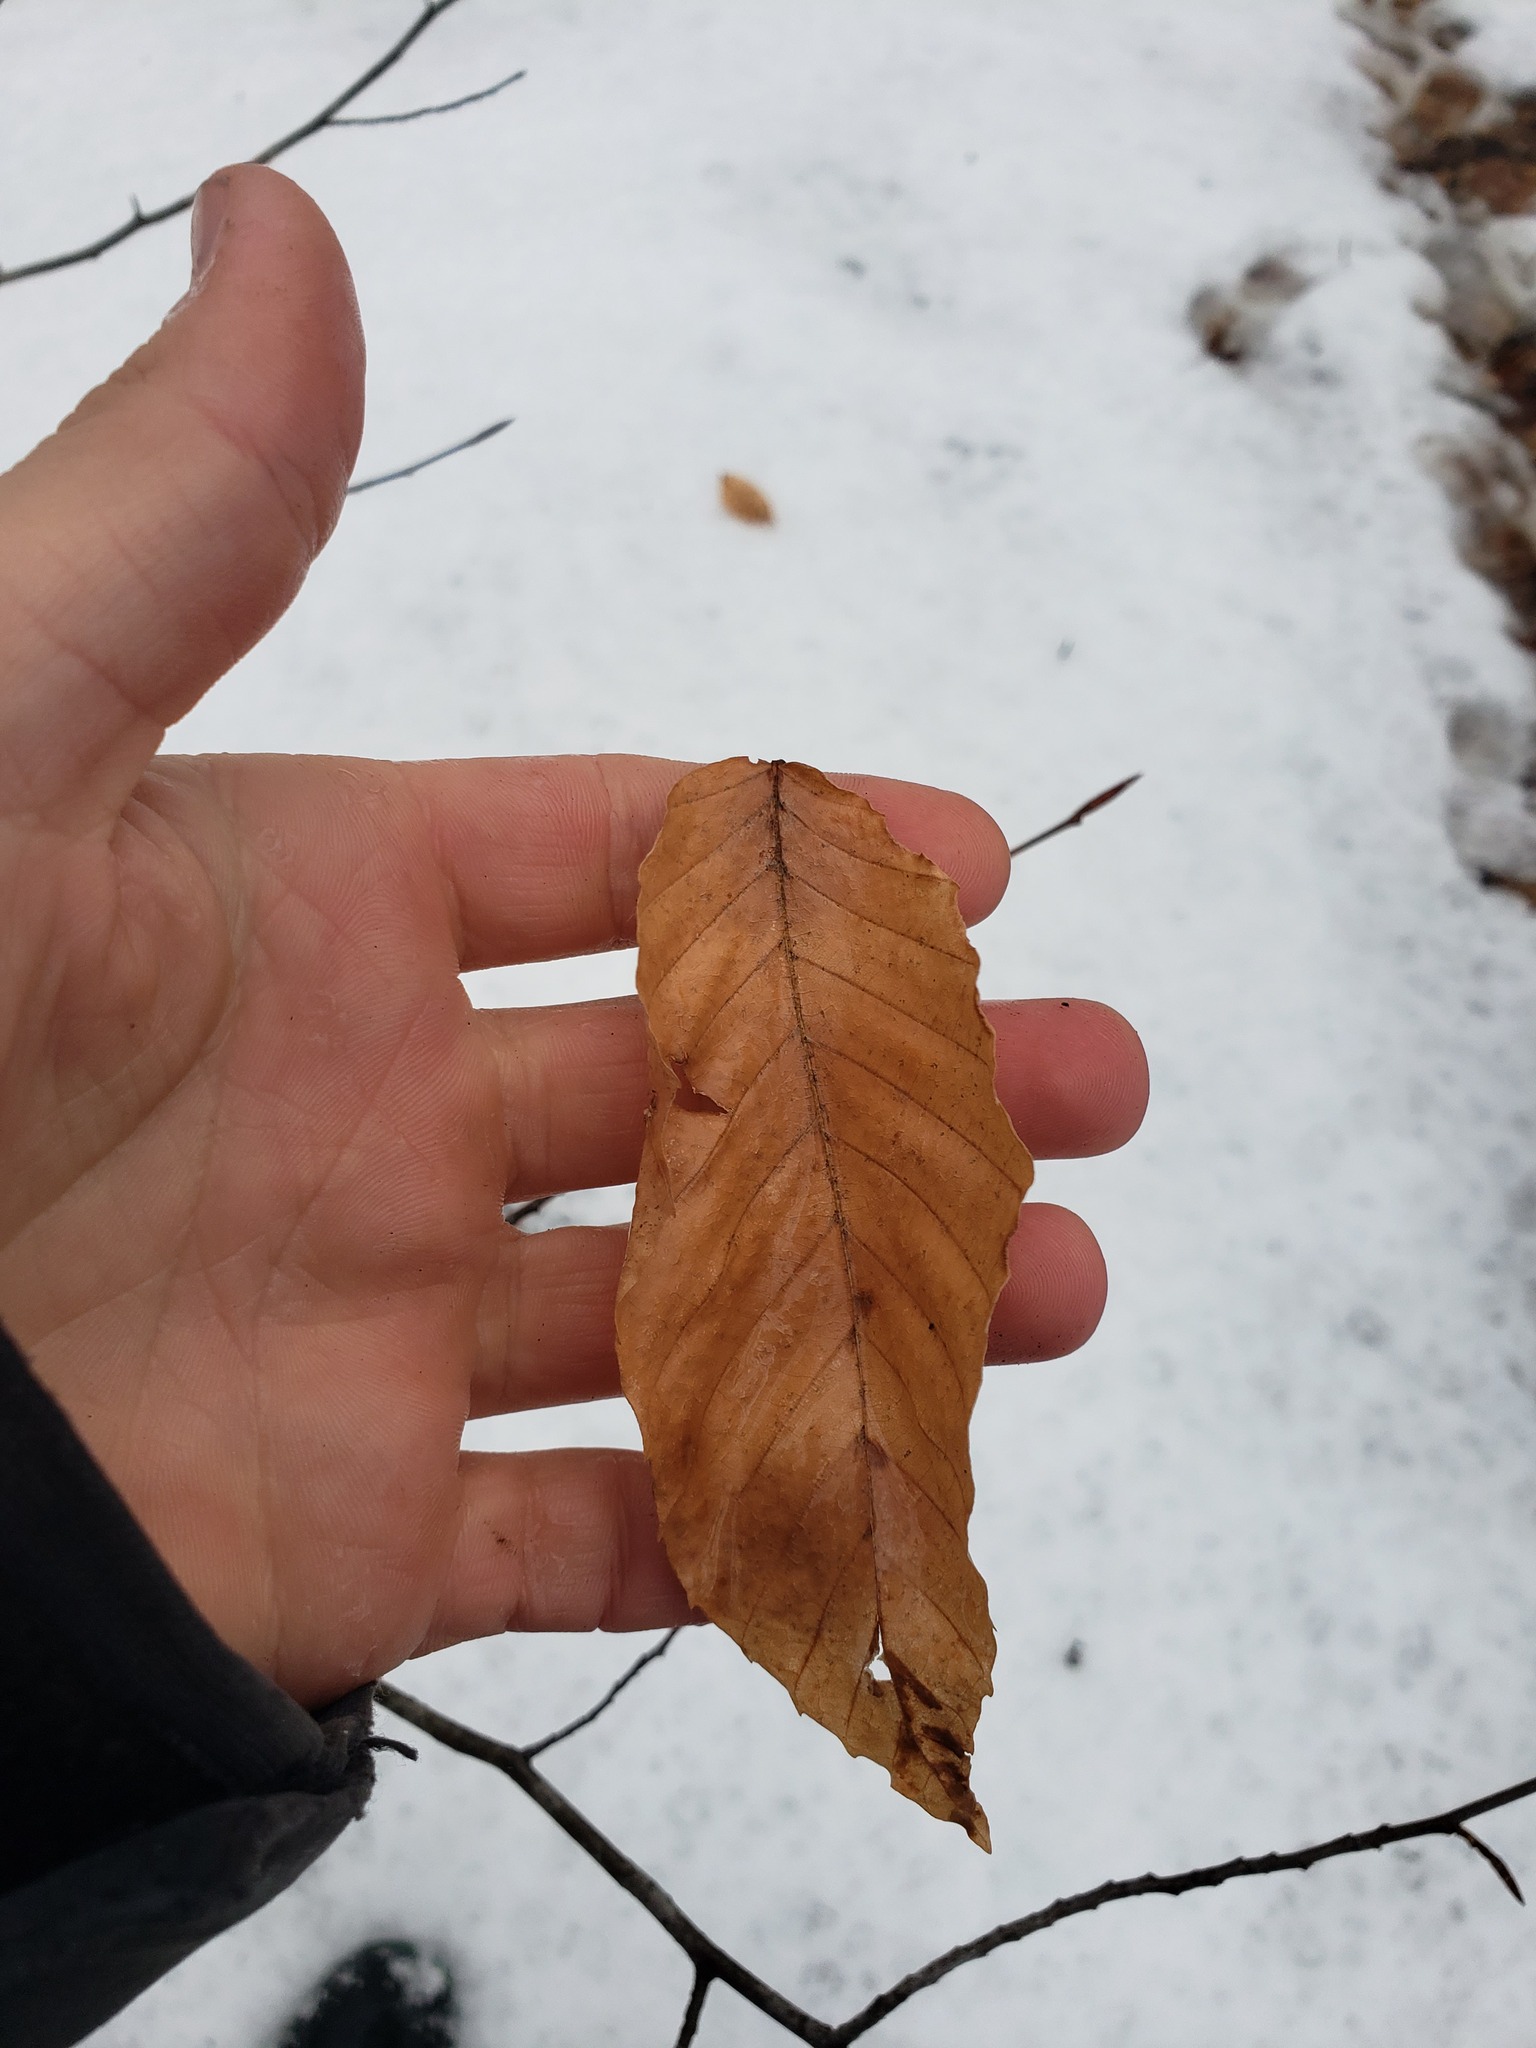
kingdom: Plantae
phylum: Tracheophyta
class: Magnoliopsida
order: Fagales
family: Fagaceae
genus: Fagus
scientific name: Fagus grandifolia
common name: American beech
